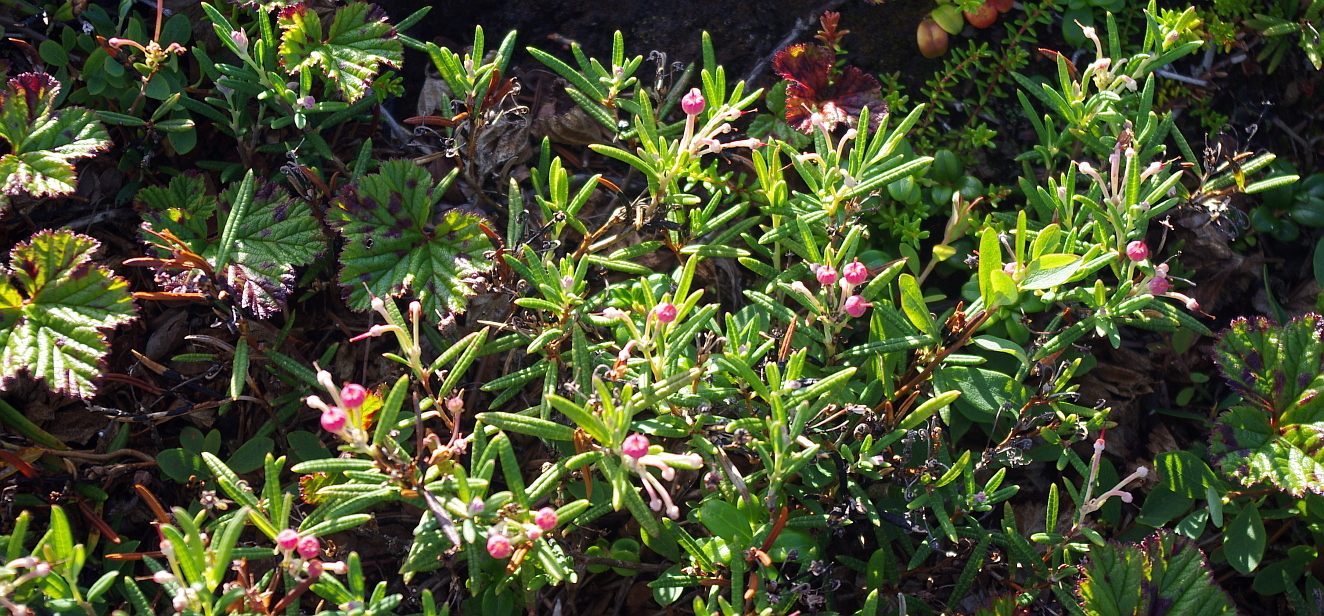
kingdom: Plantae
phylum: Tracheophyta
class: Magnoliopsida
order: Ericales
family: Ericaceae
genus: Andromeda
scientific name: Andromeda polifolia
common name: Bog-rosemary
